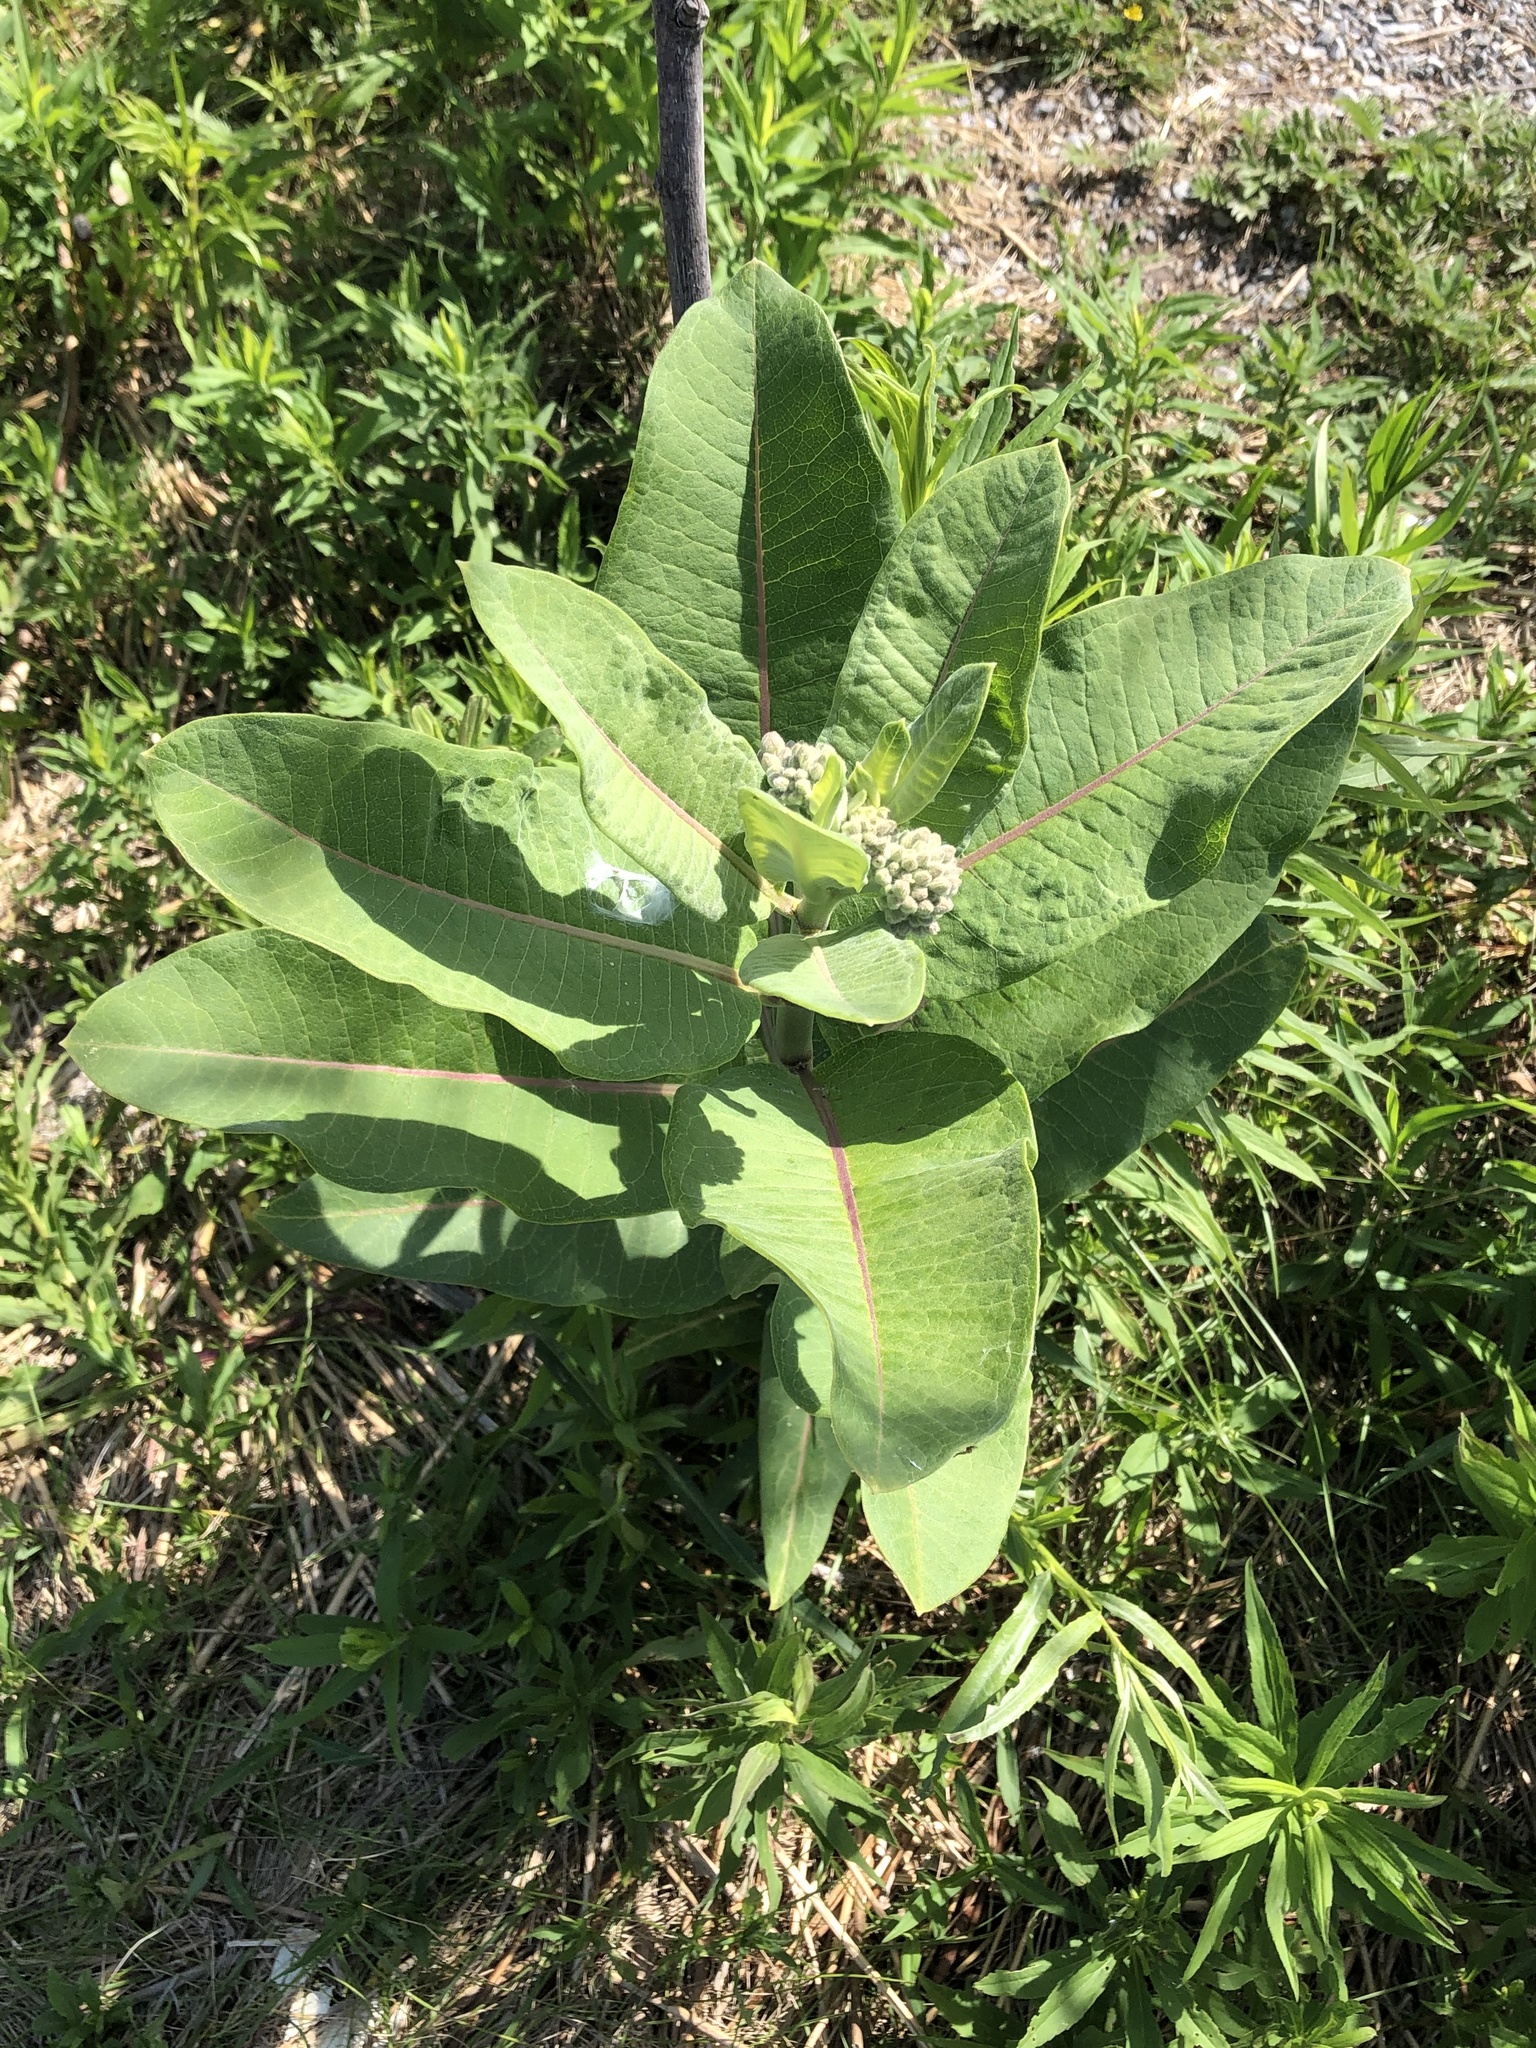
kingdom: Plantae
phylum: Tracheophyta
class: Magnoliopsida
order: Gentianales
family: Apocynaceae
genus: Asclepias
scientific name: Asclepias syriaca
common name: Common milkweed
